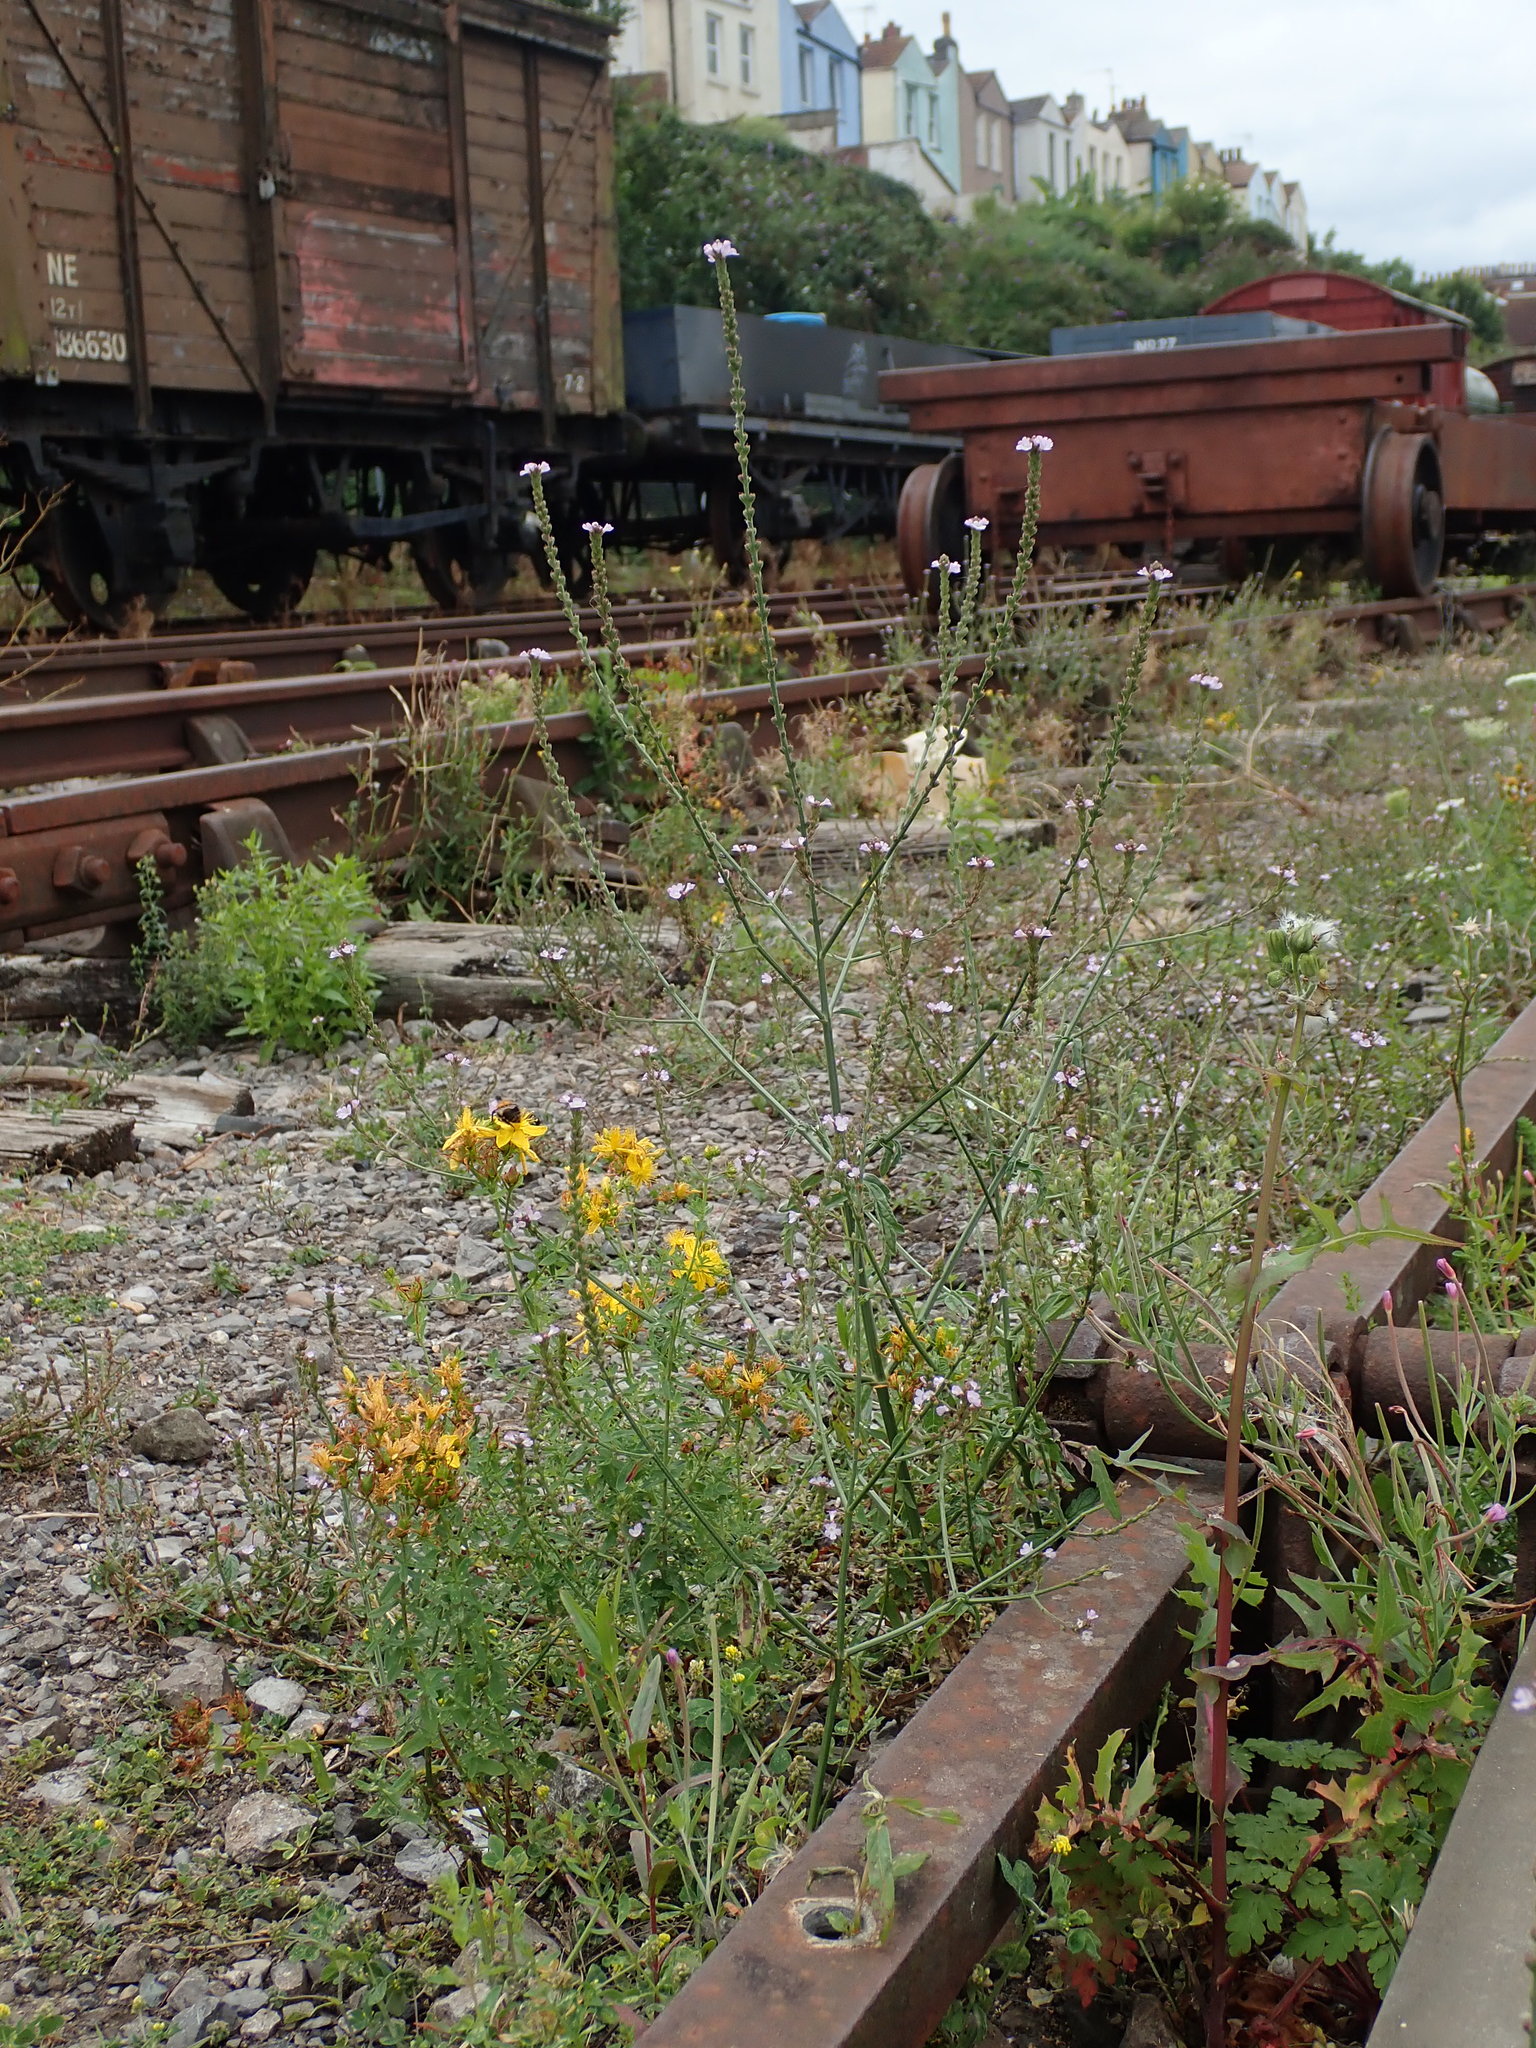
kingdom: Plantae
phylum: Tracheophyta
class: Magnoliopsida
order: Lamiales
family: Verbenaceae
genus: Verbena
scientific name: Verbena officinalis
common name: Vervain
